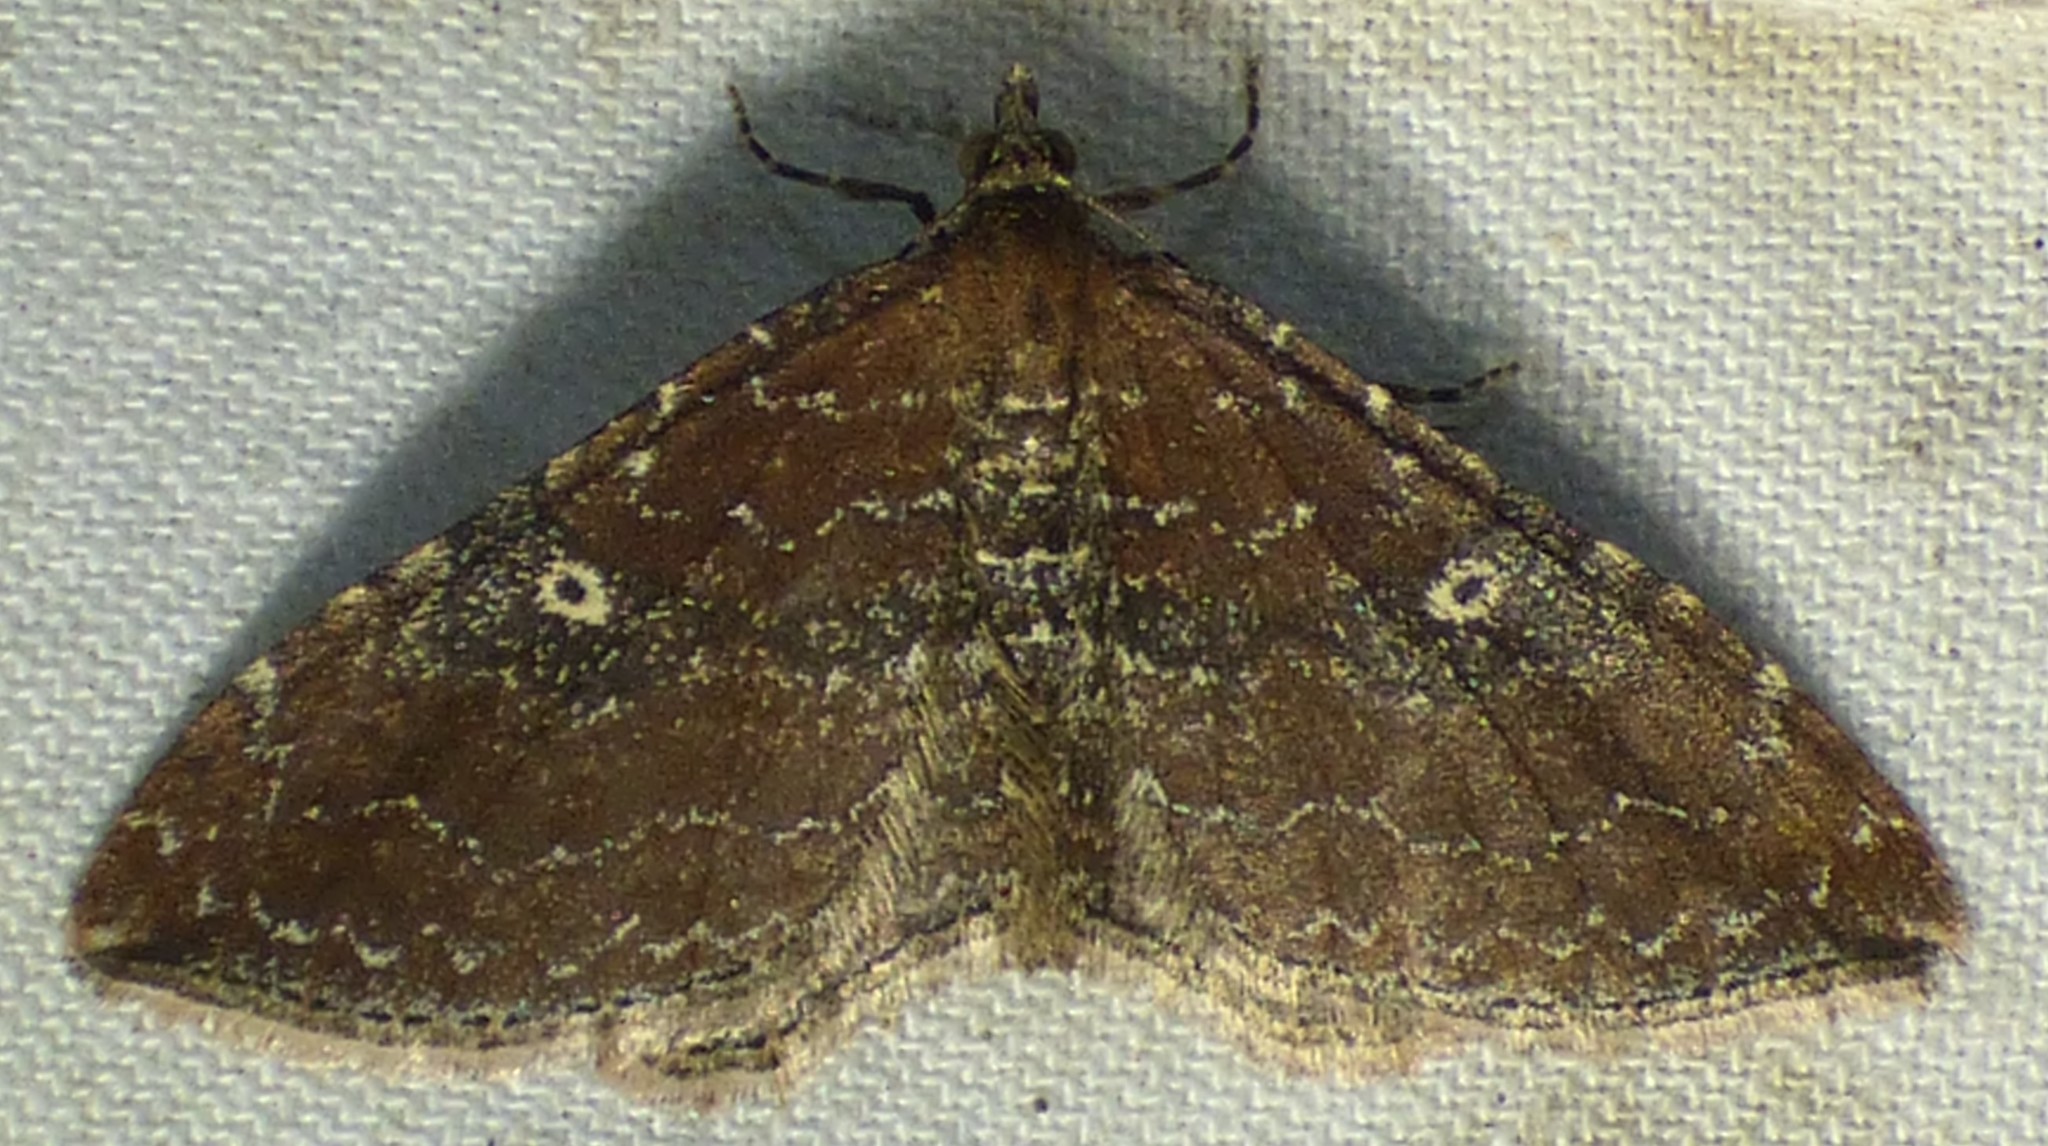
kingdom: Animalia
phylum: Arthropoda
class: Insecta
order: Lepidoptera
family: Geometridae
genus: Orthonama
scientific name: Orthonama obstipata
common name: The gem
